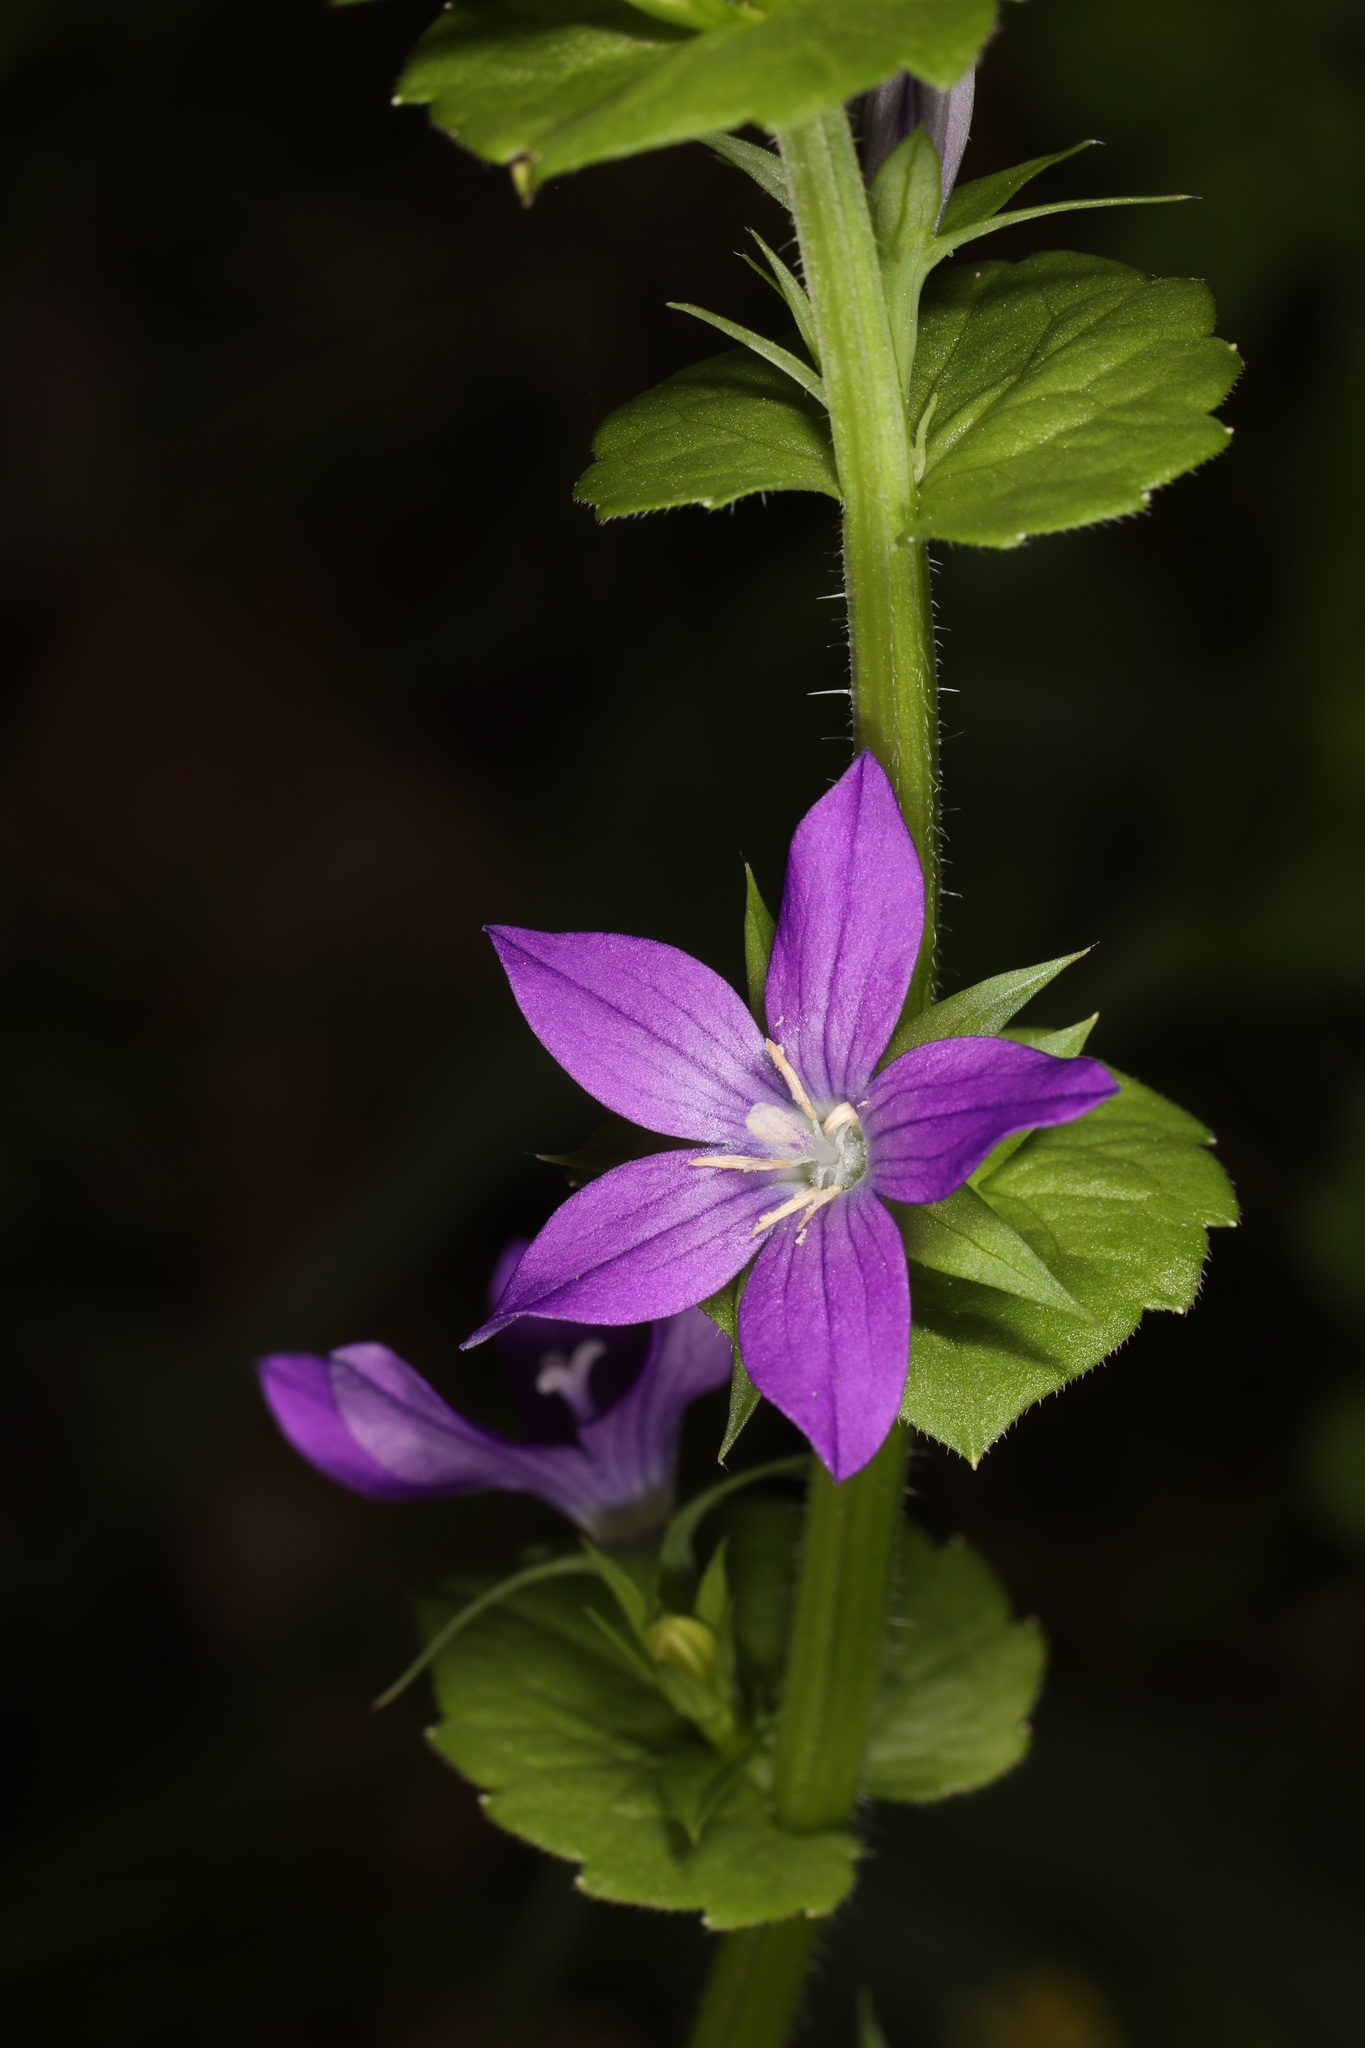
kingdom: Plantae
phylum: Tracheophyta
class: Magnoliopsida
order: Asterales
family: Campanulaceae
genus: Triodanis
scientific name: Triodanis perfoliata
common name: Clasping venus' looking-glass
